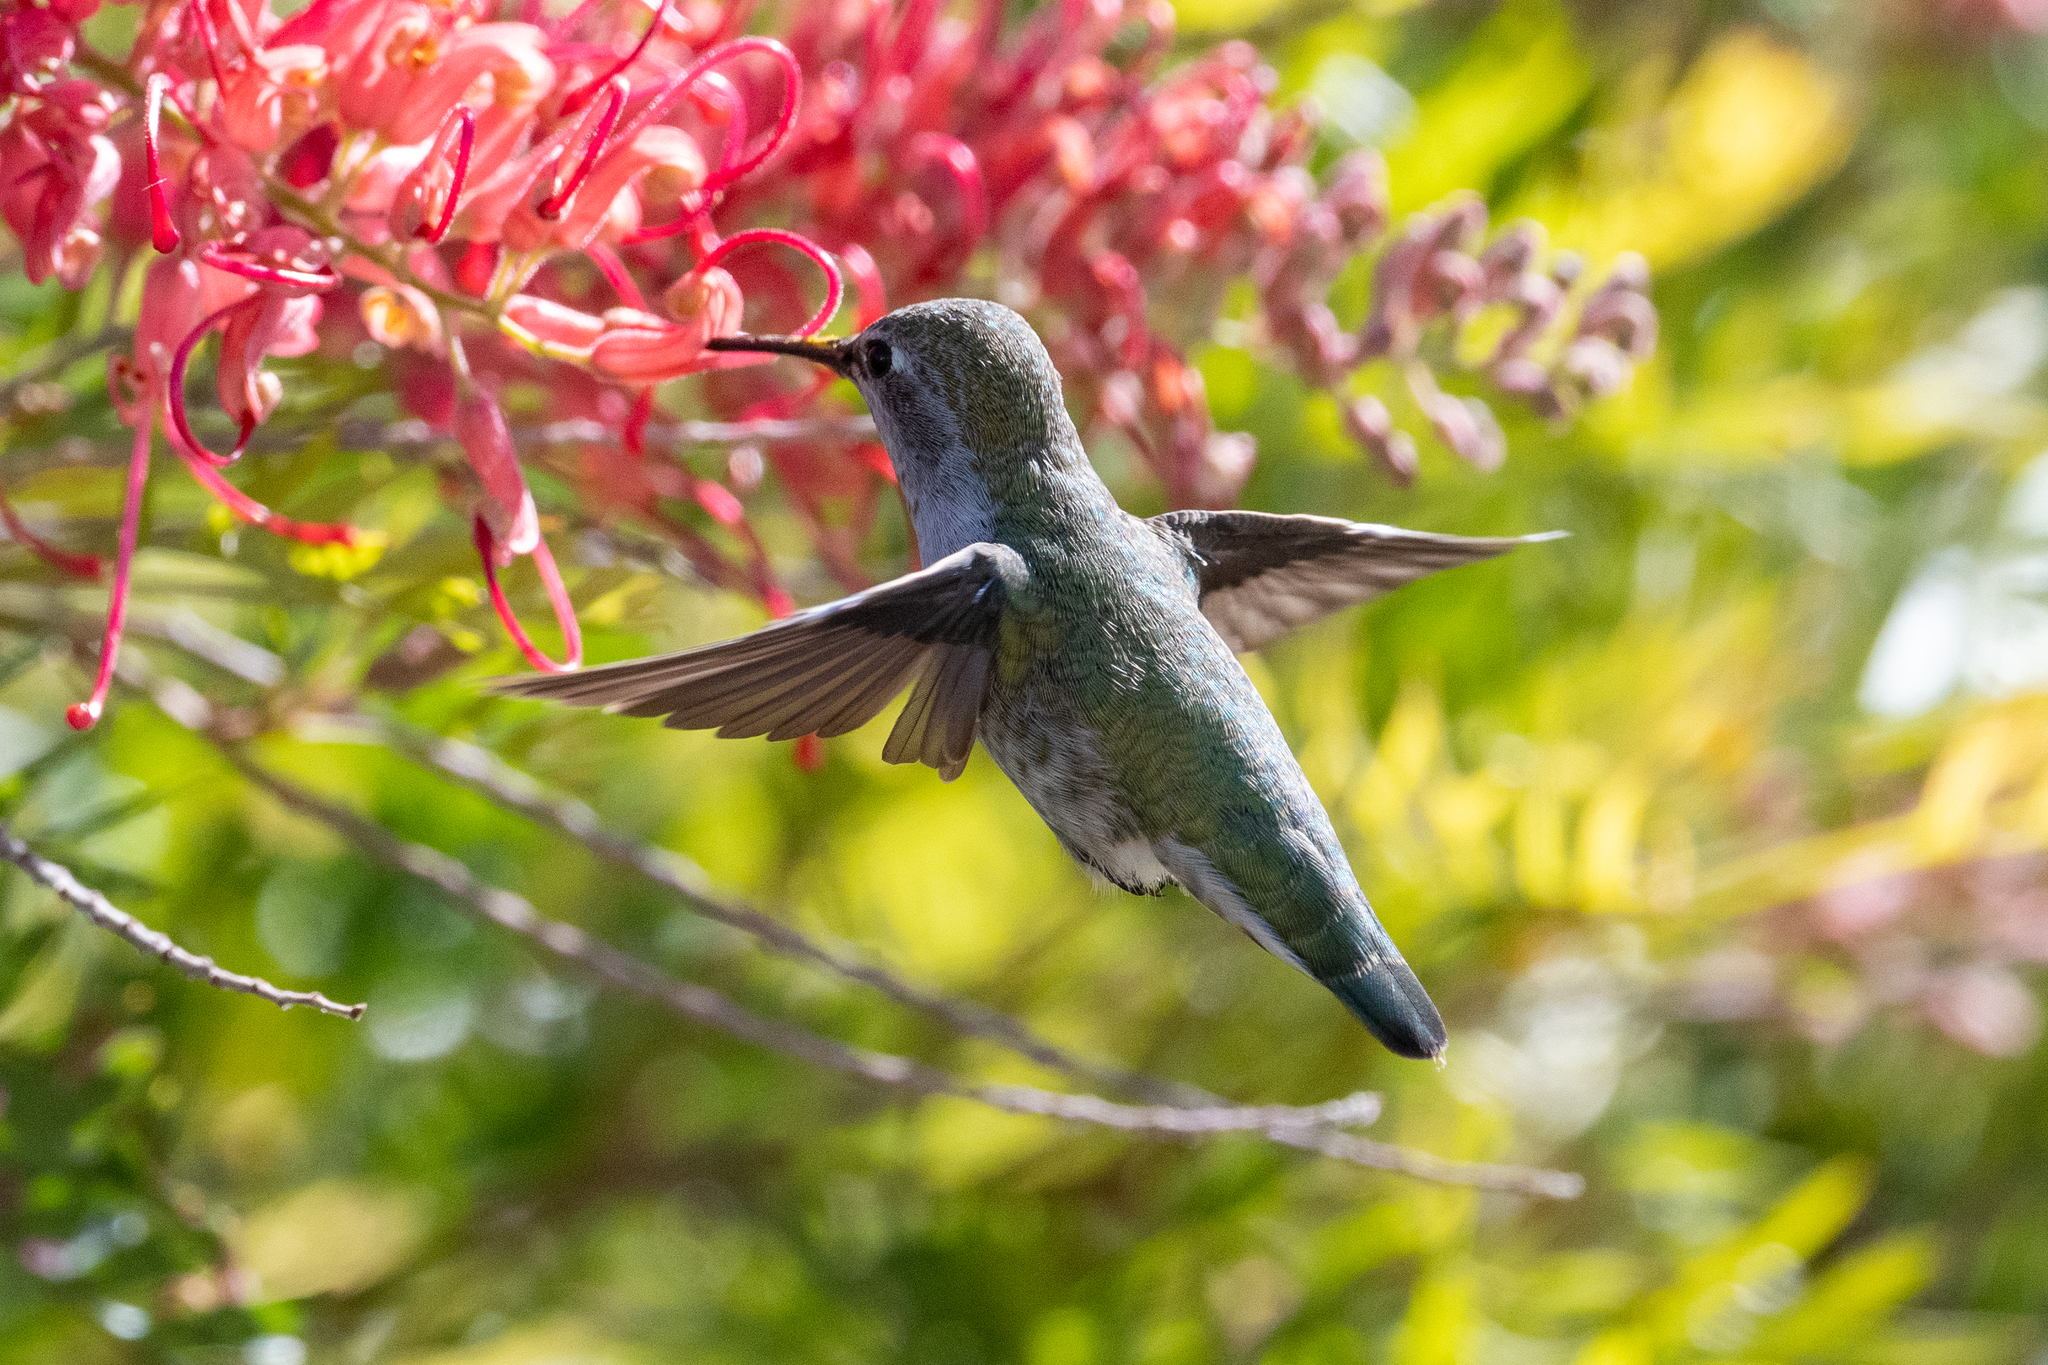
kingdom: Animalia
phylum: Chordata
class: Aves
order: Apodiformes
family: Trochilidae
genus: Calypte
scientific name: Calypte anna
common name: Anna's hummingbird
